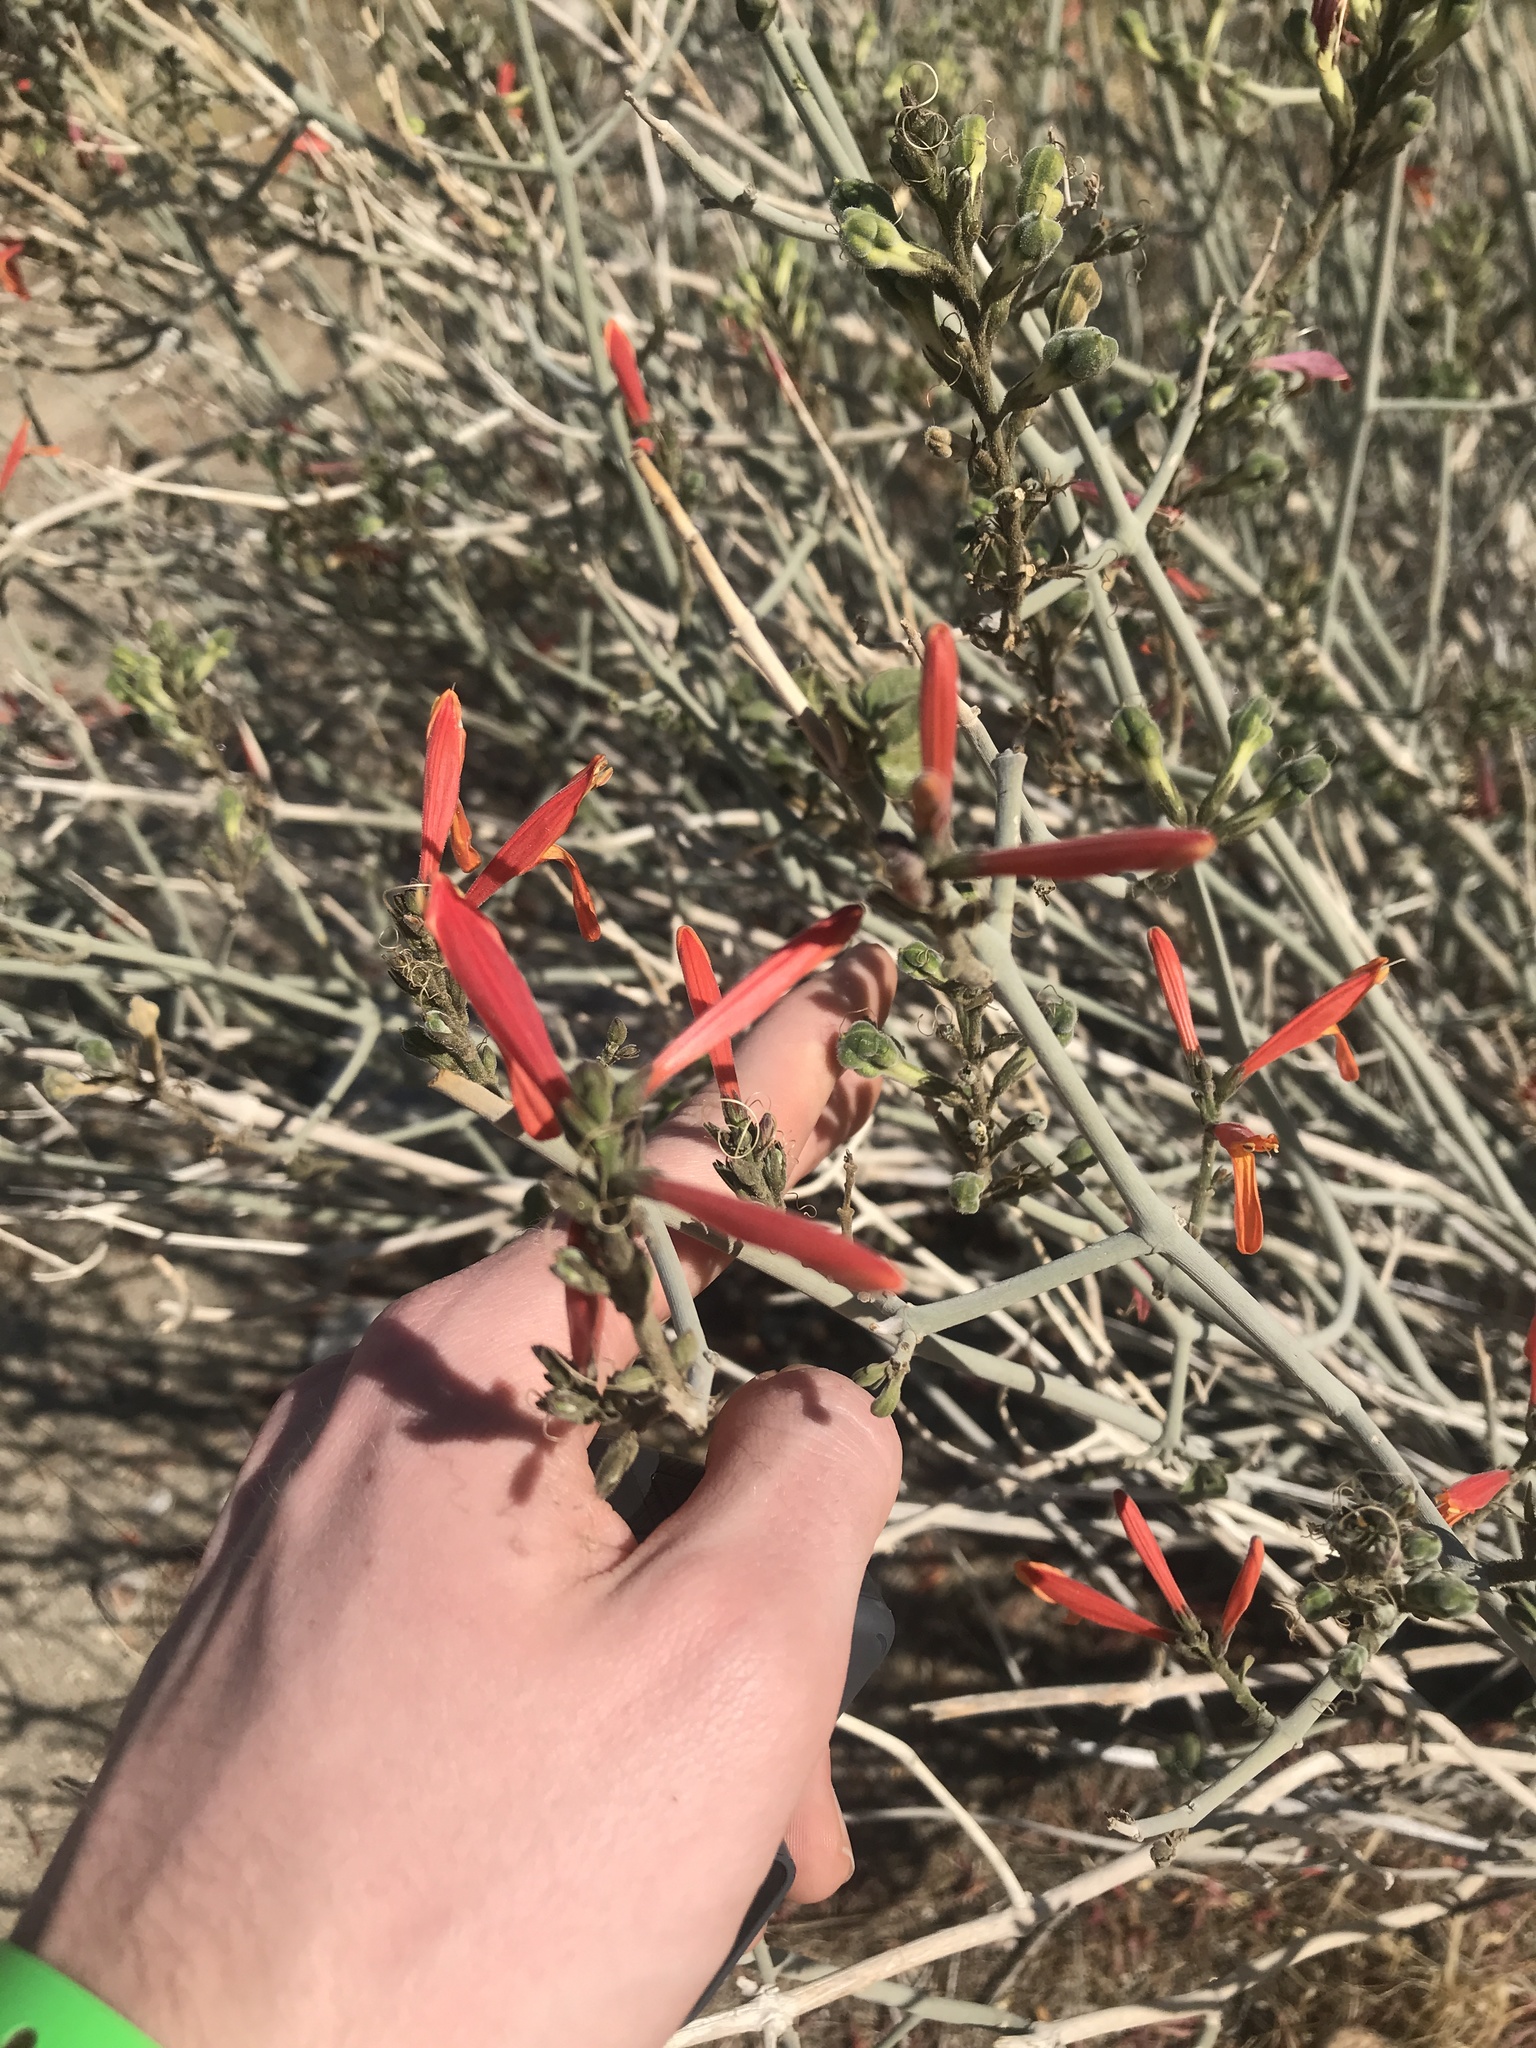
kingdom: Plantae
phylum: Tracheophyta
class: Magnoliopsida
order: Lamiales
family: Acanthaceae
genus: Justicia
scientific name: Justicia californica
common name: Chuparosa-honeysuckle
